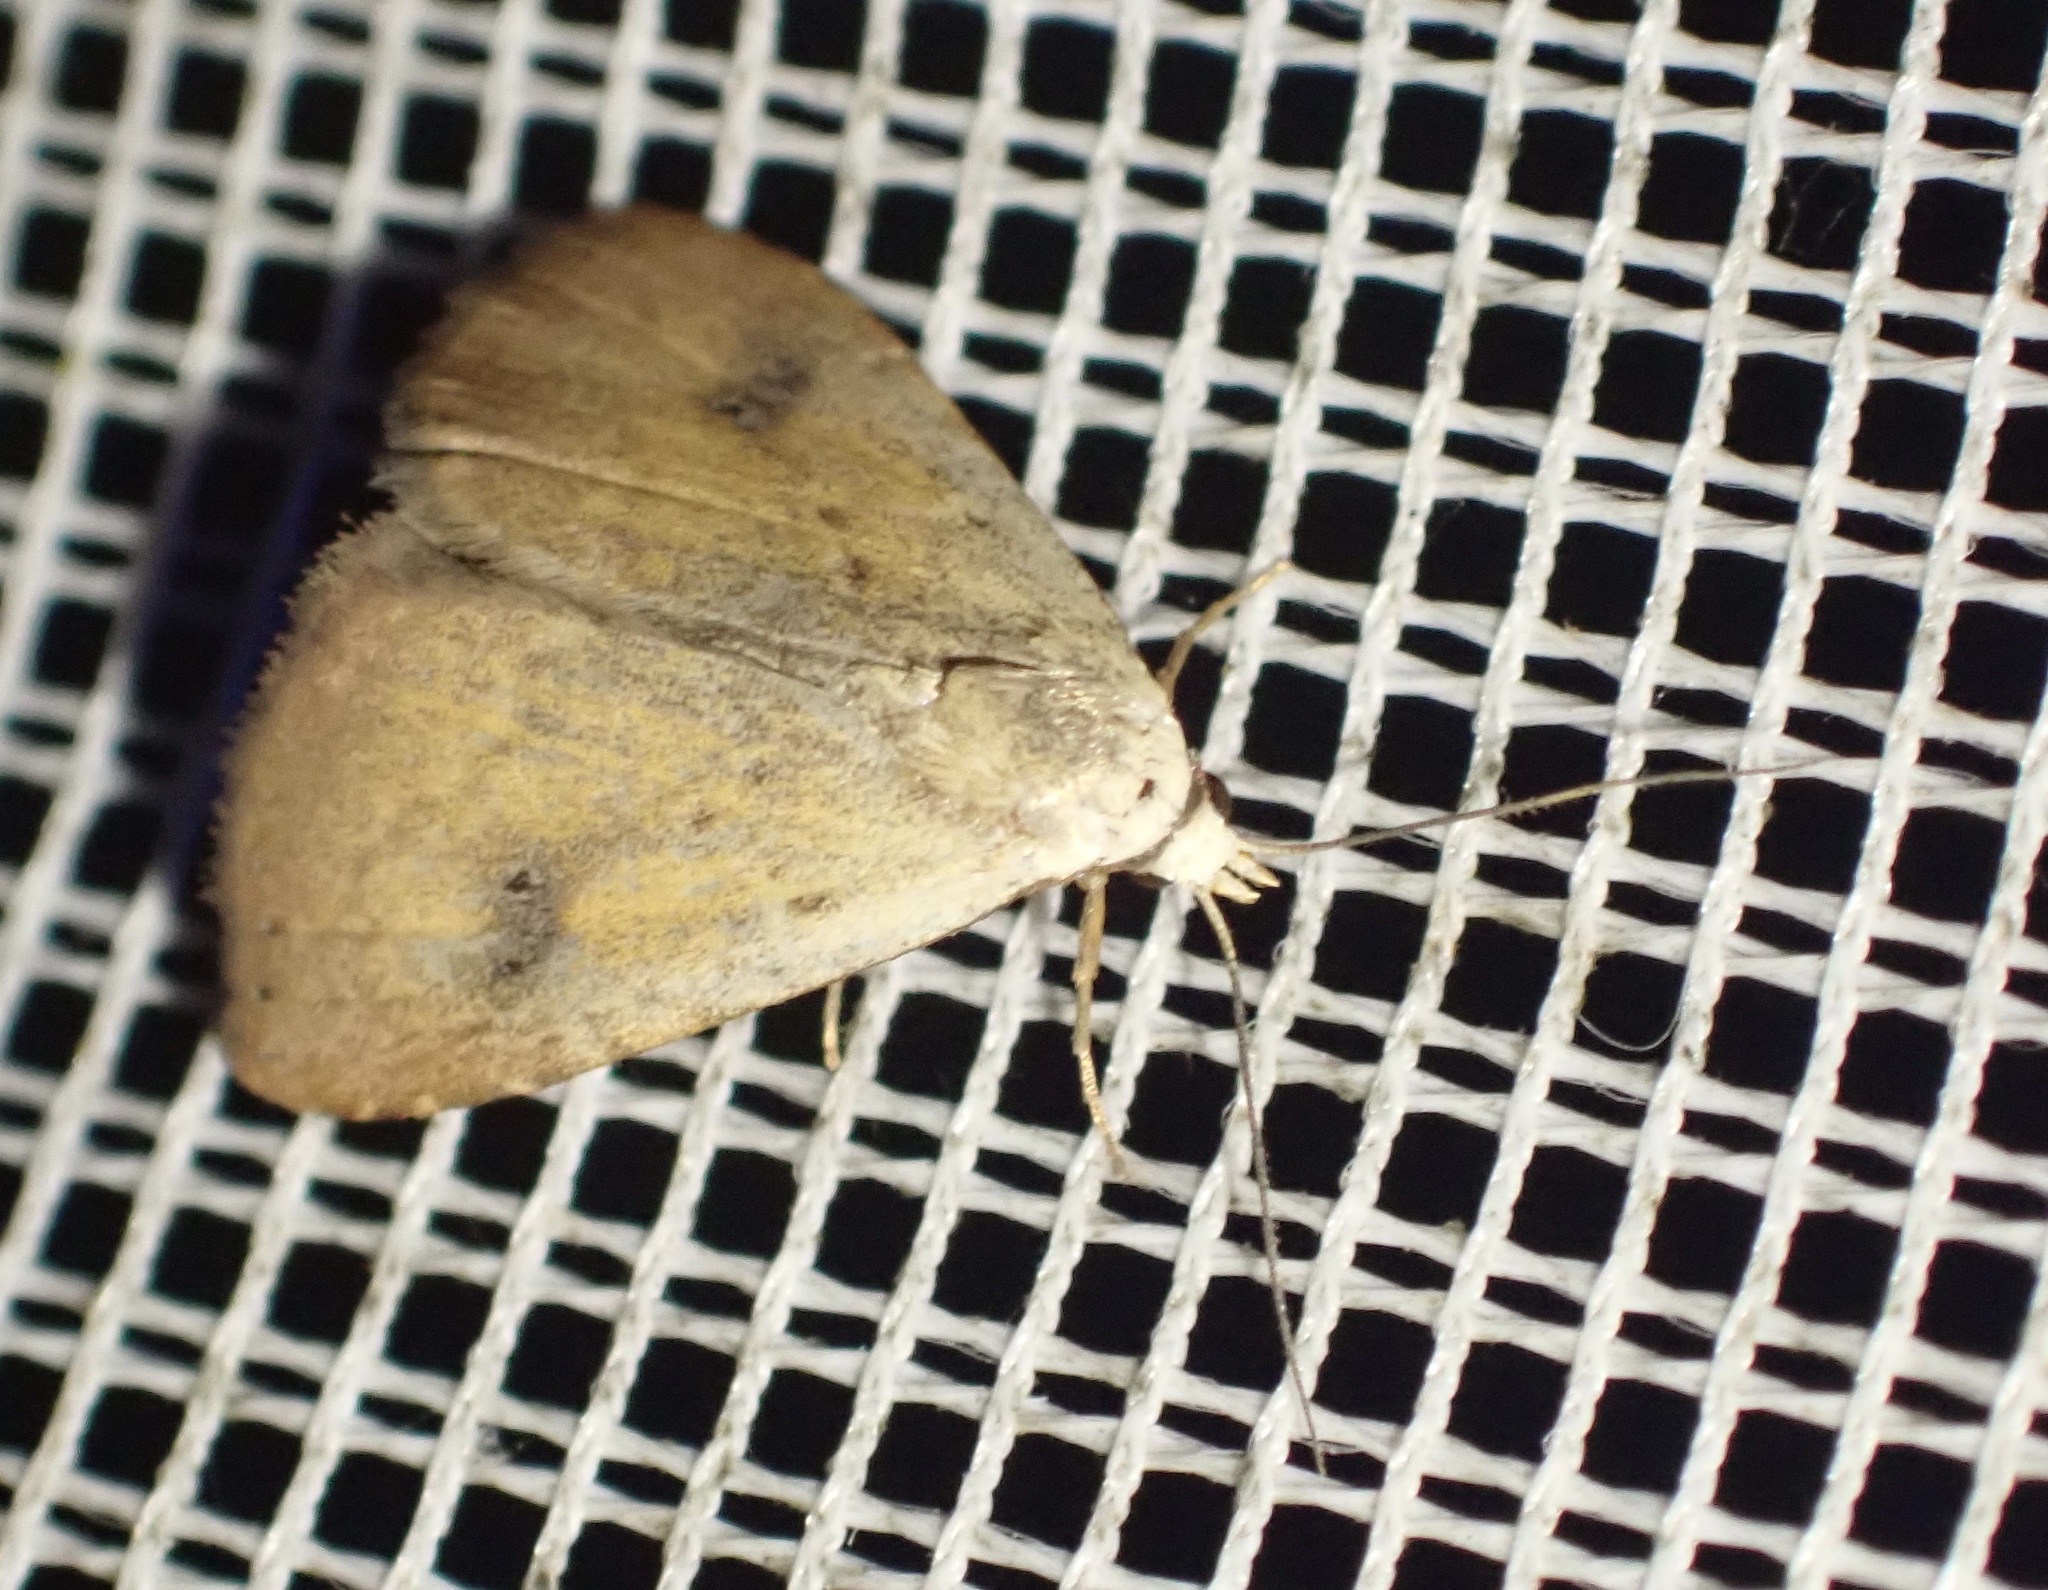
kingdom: Animalia
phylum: Arthropoda
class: Insecta
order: Lepidoptera
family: Erebidae
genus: Rivula
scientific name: Rivula sericealis
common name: Straw dot
